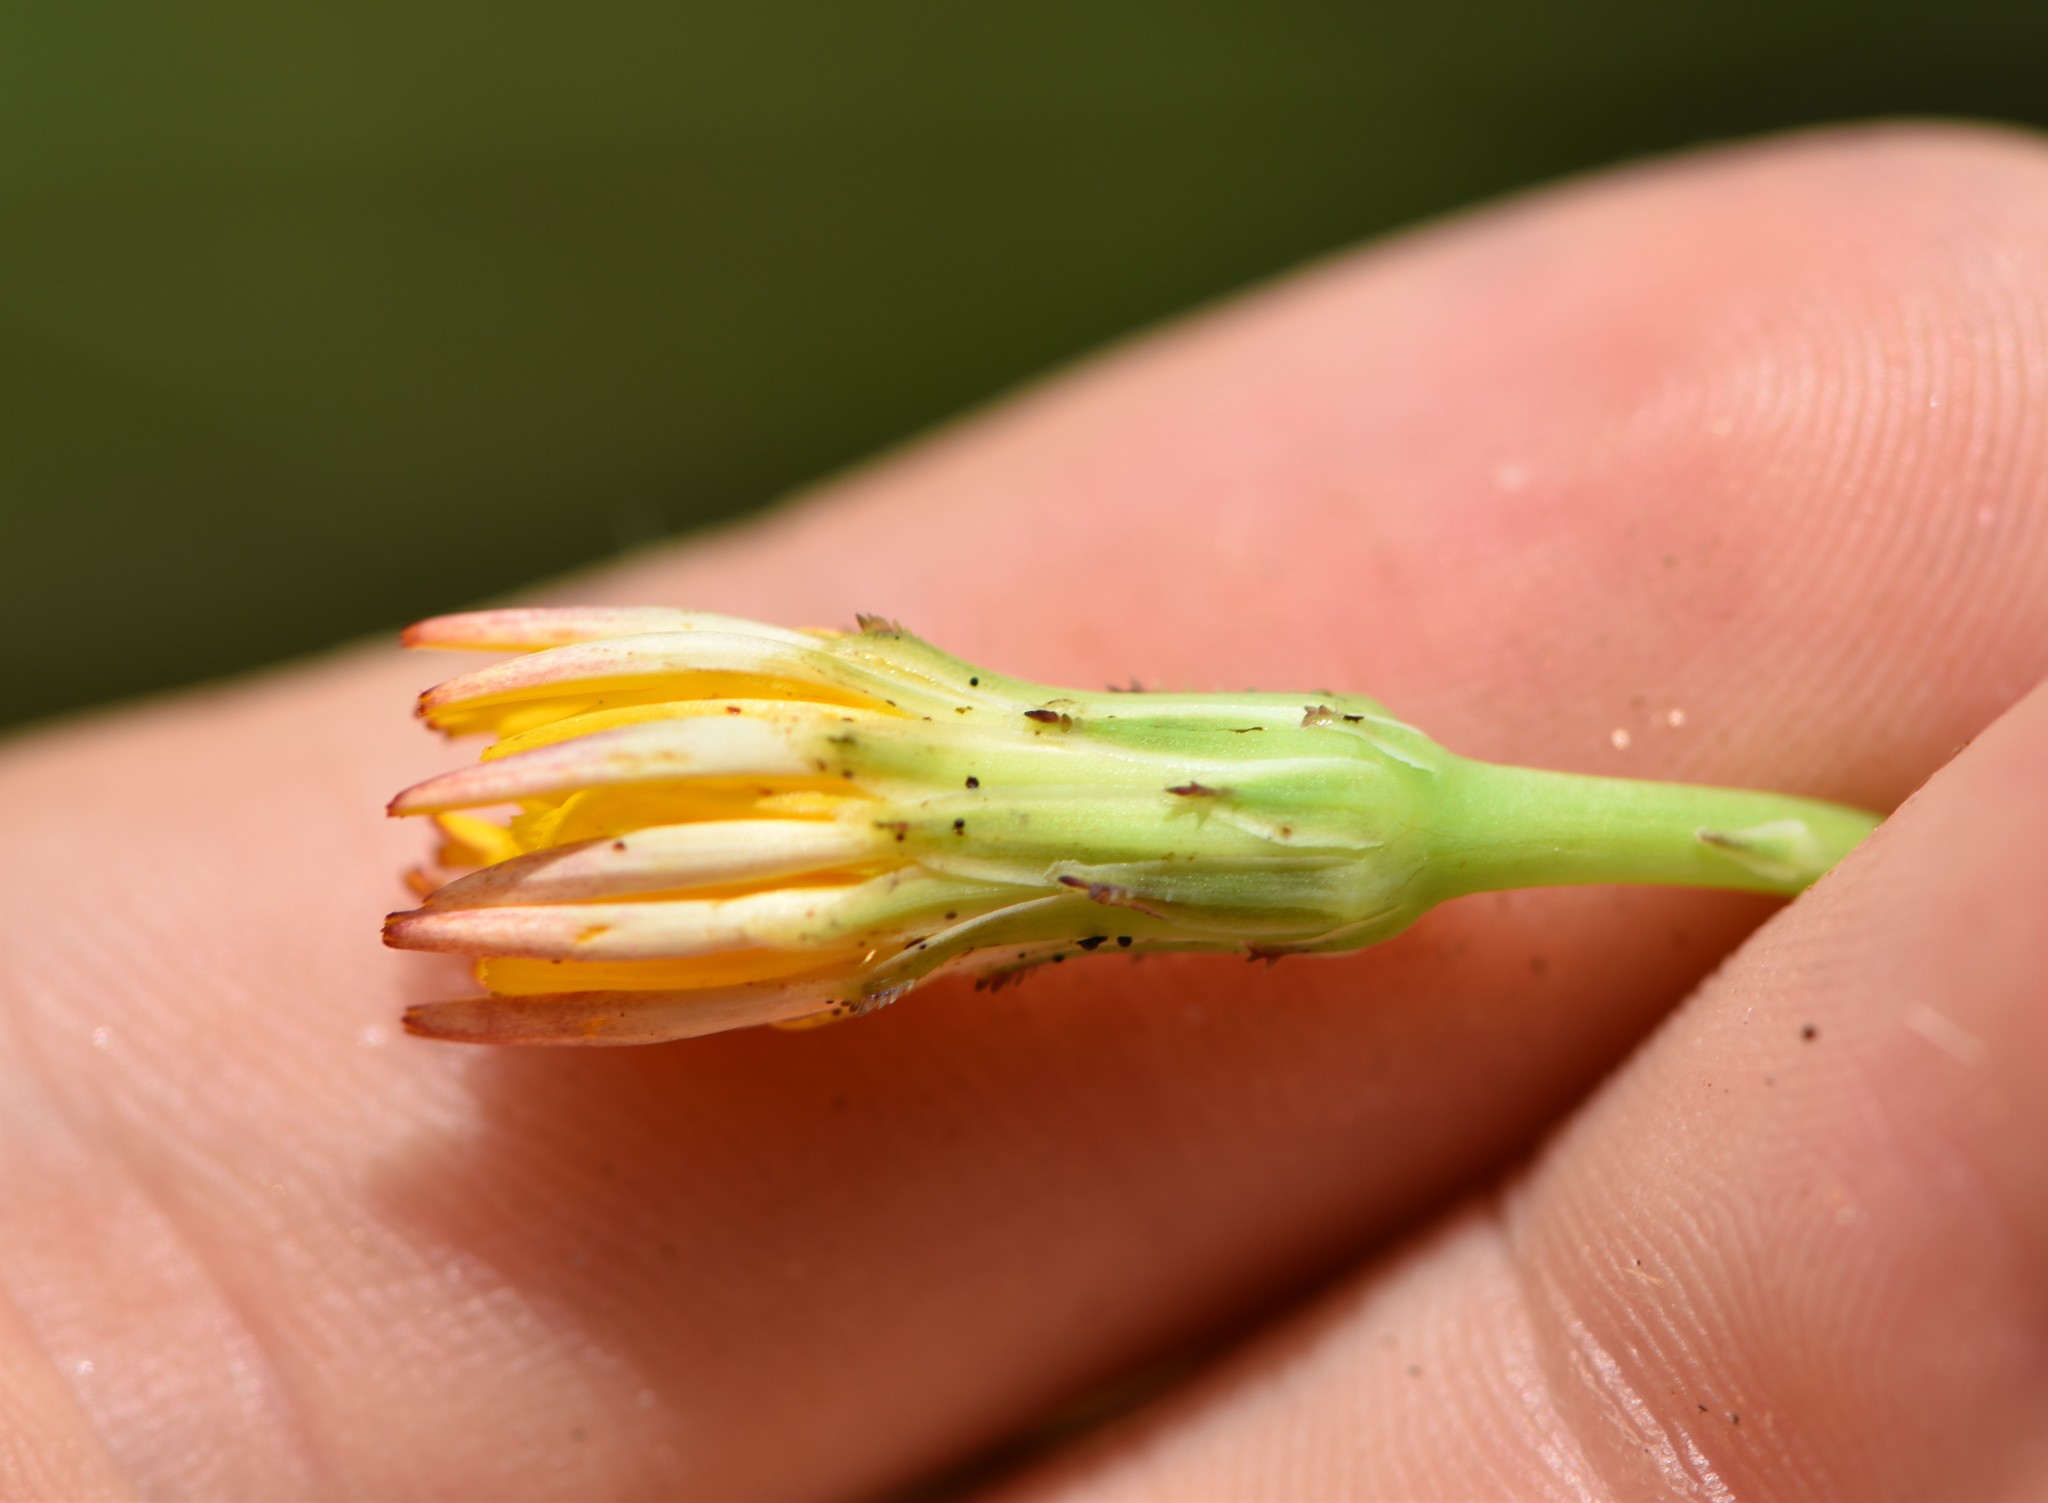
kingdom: Plantae
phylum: Tracheophyta
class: Magnoliopsida
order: Asterales
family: Asteraceae
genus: Hypochaeris
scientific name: Hypochaeris radicata
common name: Flatweed
